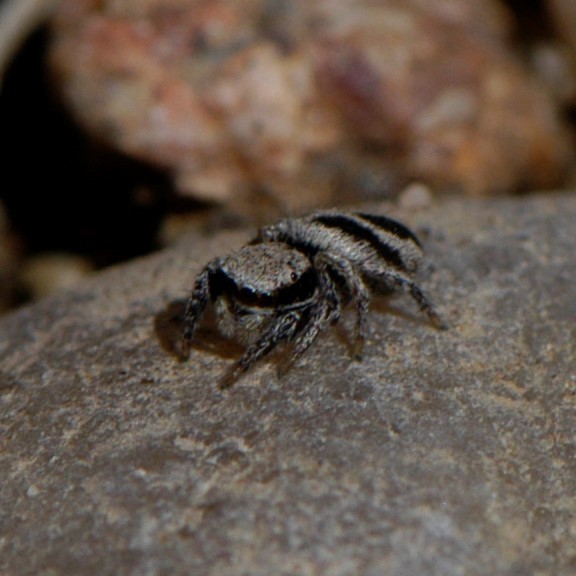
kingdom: Animalia
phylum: Arthropoda
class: Arachnida
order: Araneae
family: Salticidae
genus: Habronattus
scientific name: Habronattus klauseri
